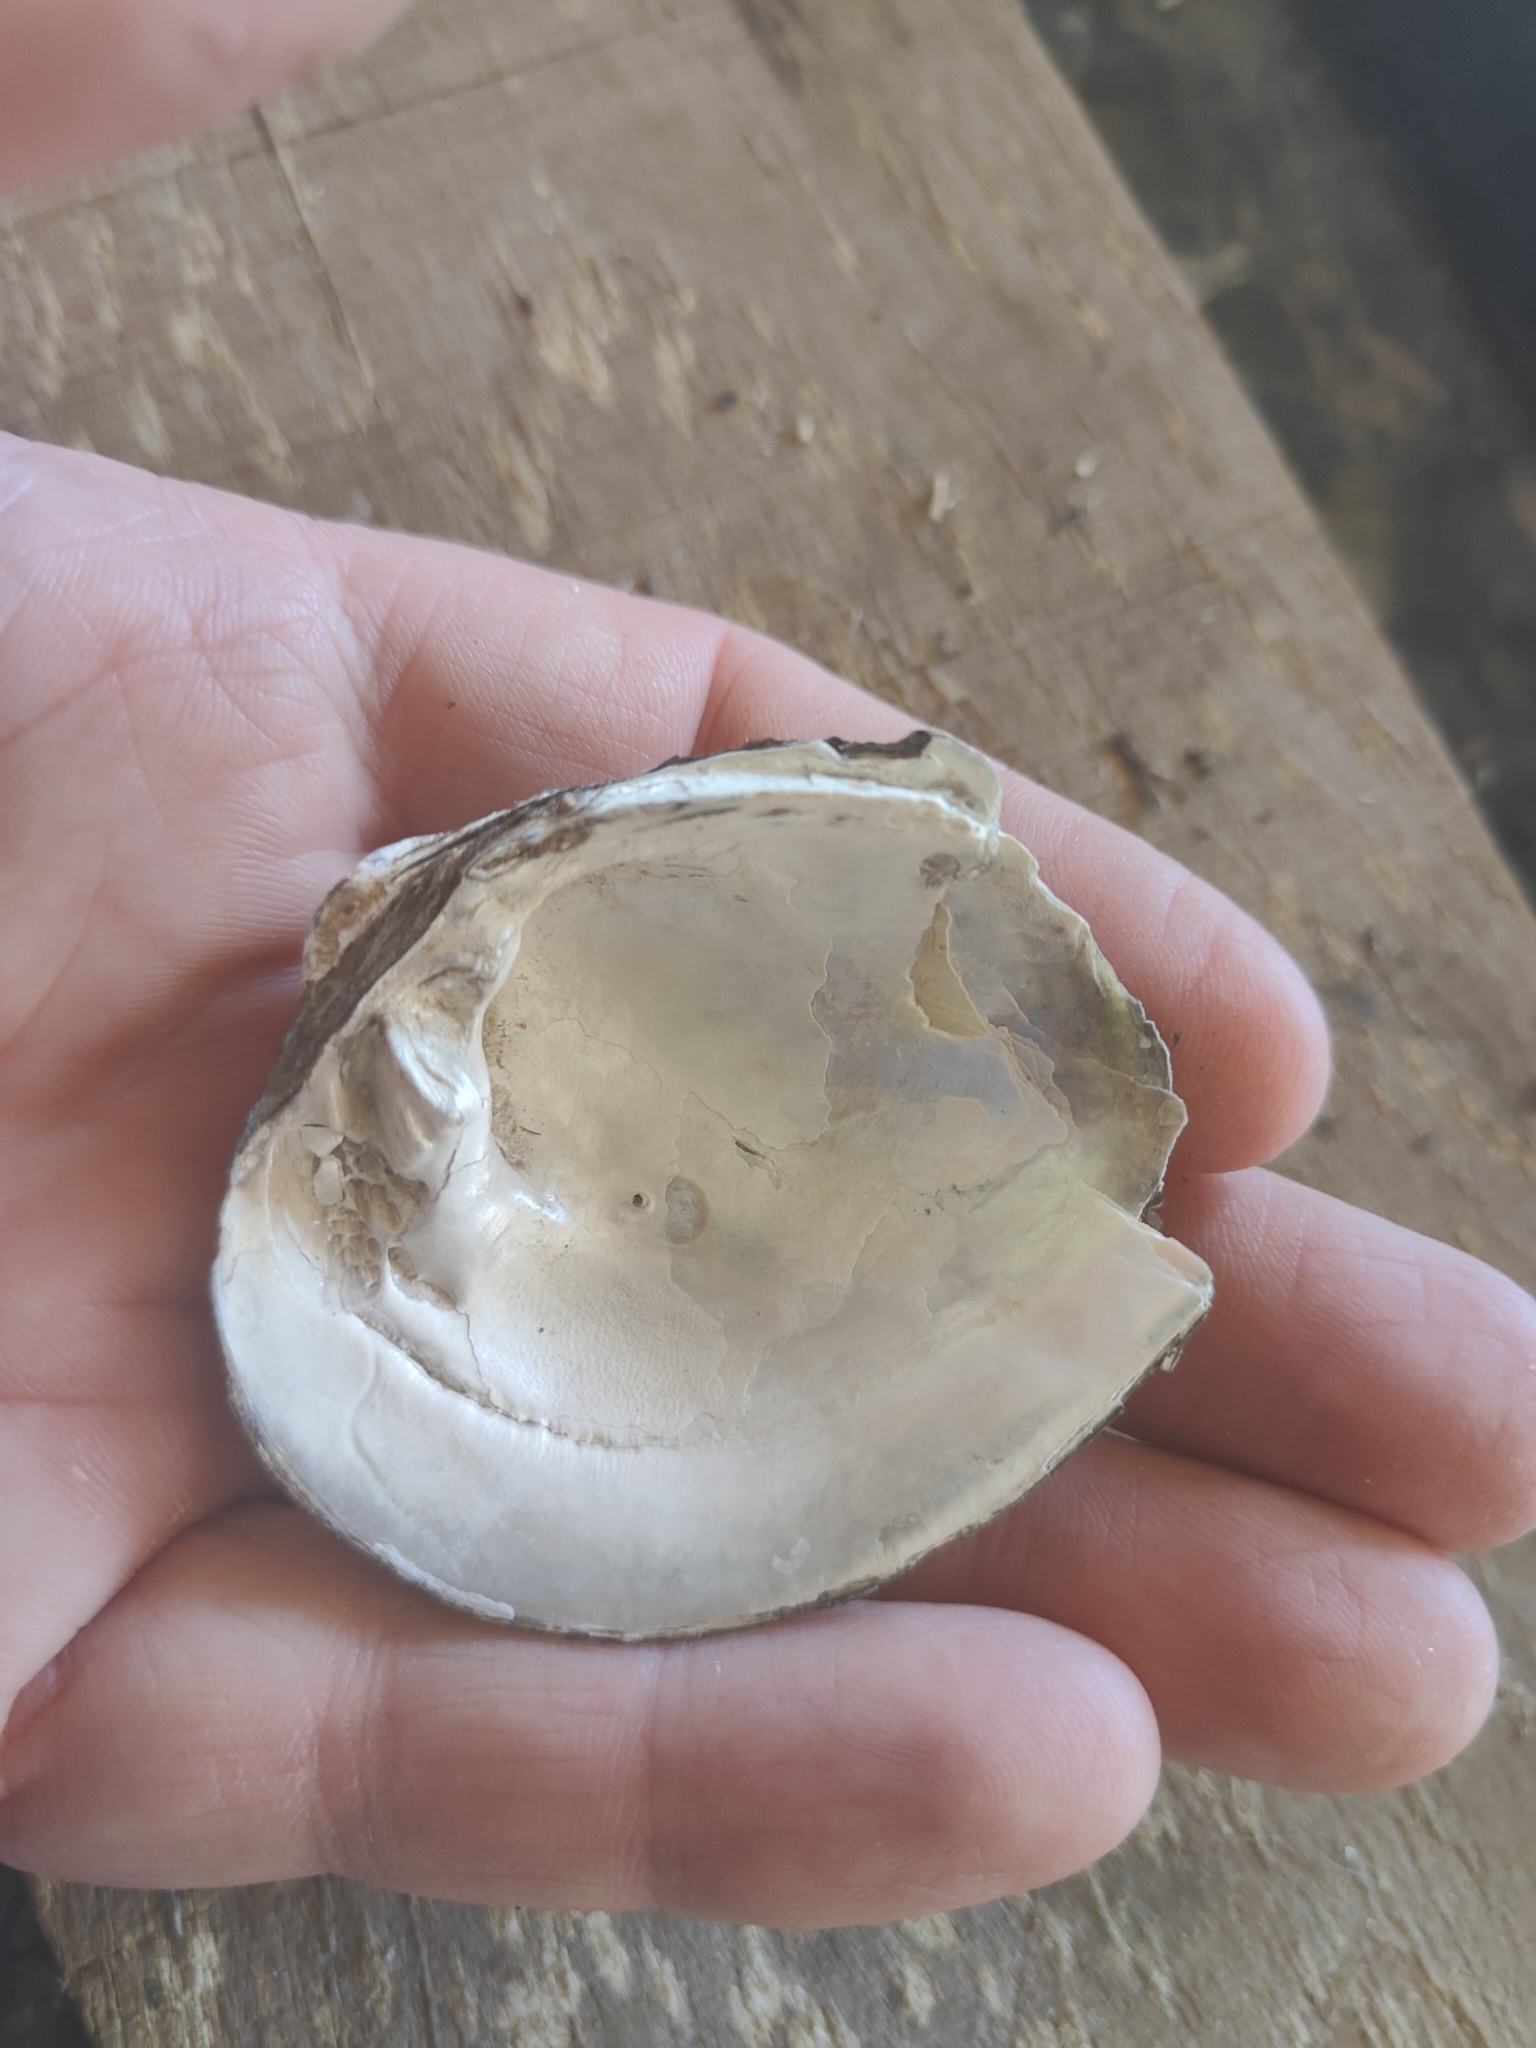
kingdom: Animalia
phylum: Mollusca
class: Bivalvia
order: Unionida
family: Unionidae
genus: Fusconaia
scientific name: Fusconaia flava
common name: Wabash pigtoe
